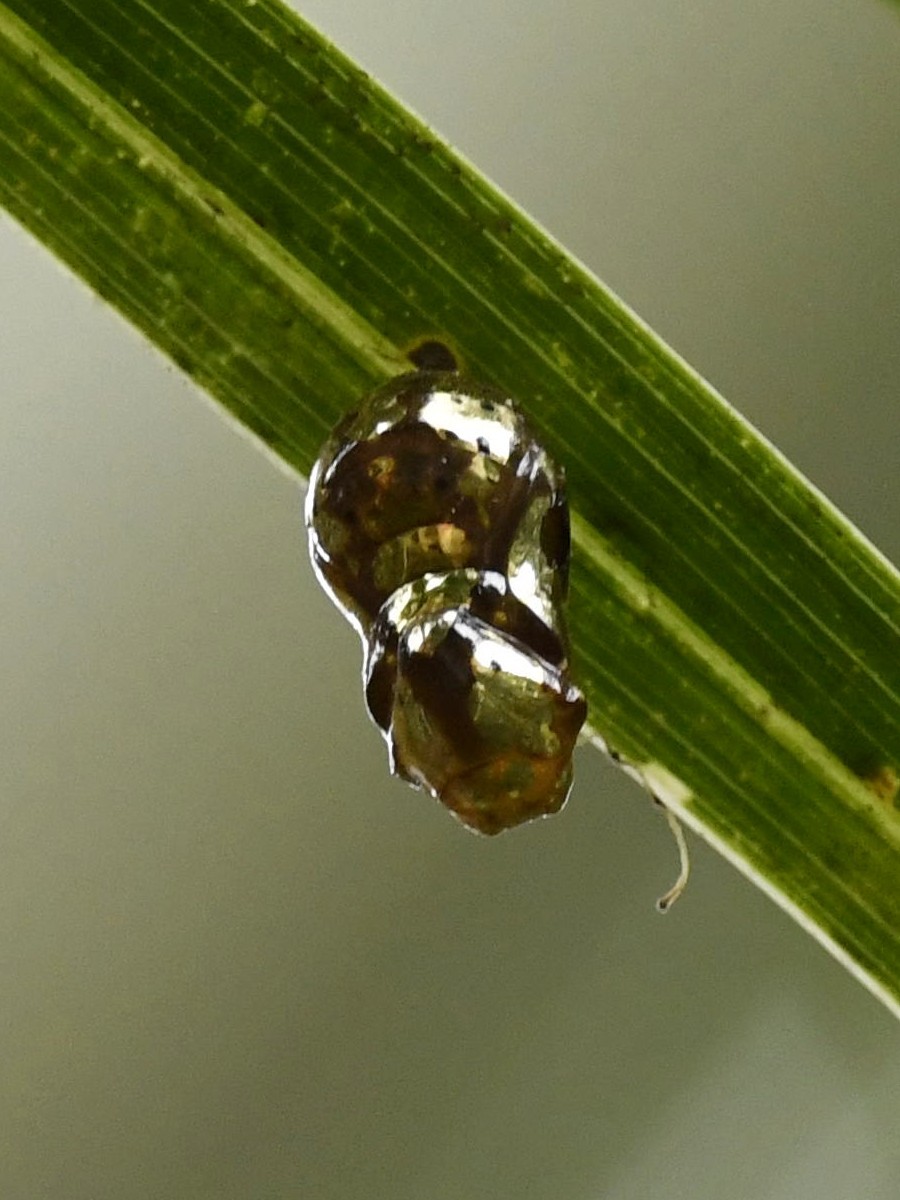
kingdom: Animalia
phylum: Arthropoda
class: Insecta
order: Lepidoptera
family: Nymphalidae
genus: Euploea
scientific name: Euploea core
